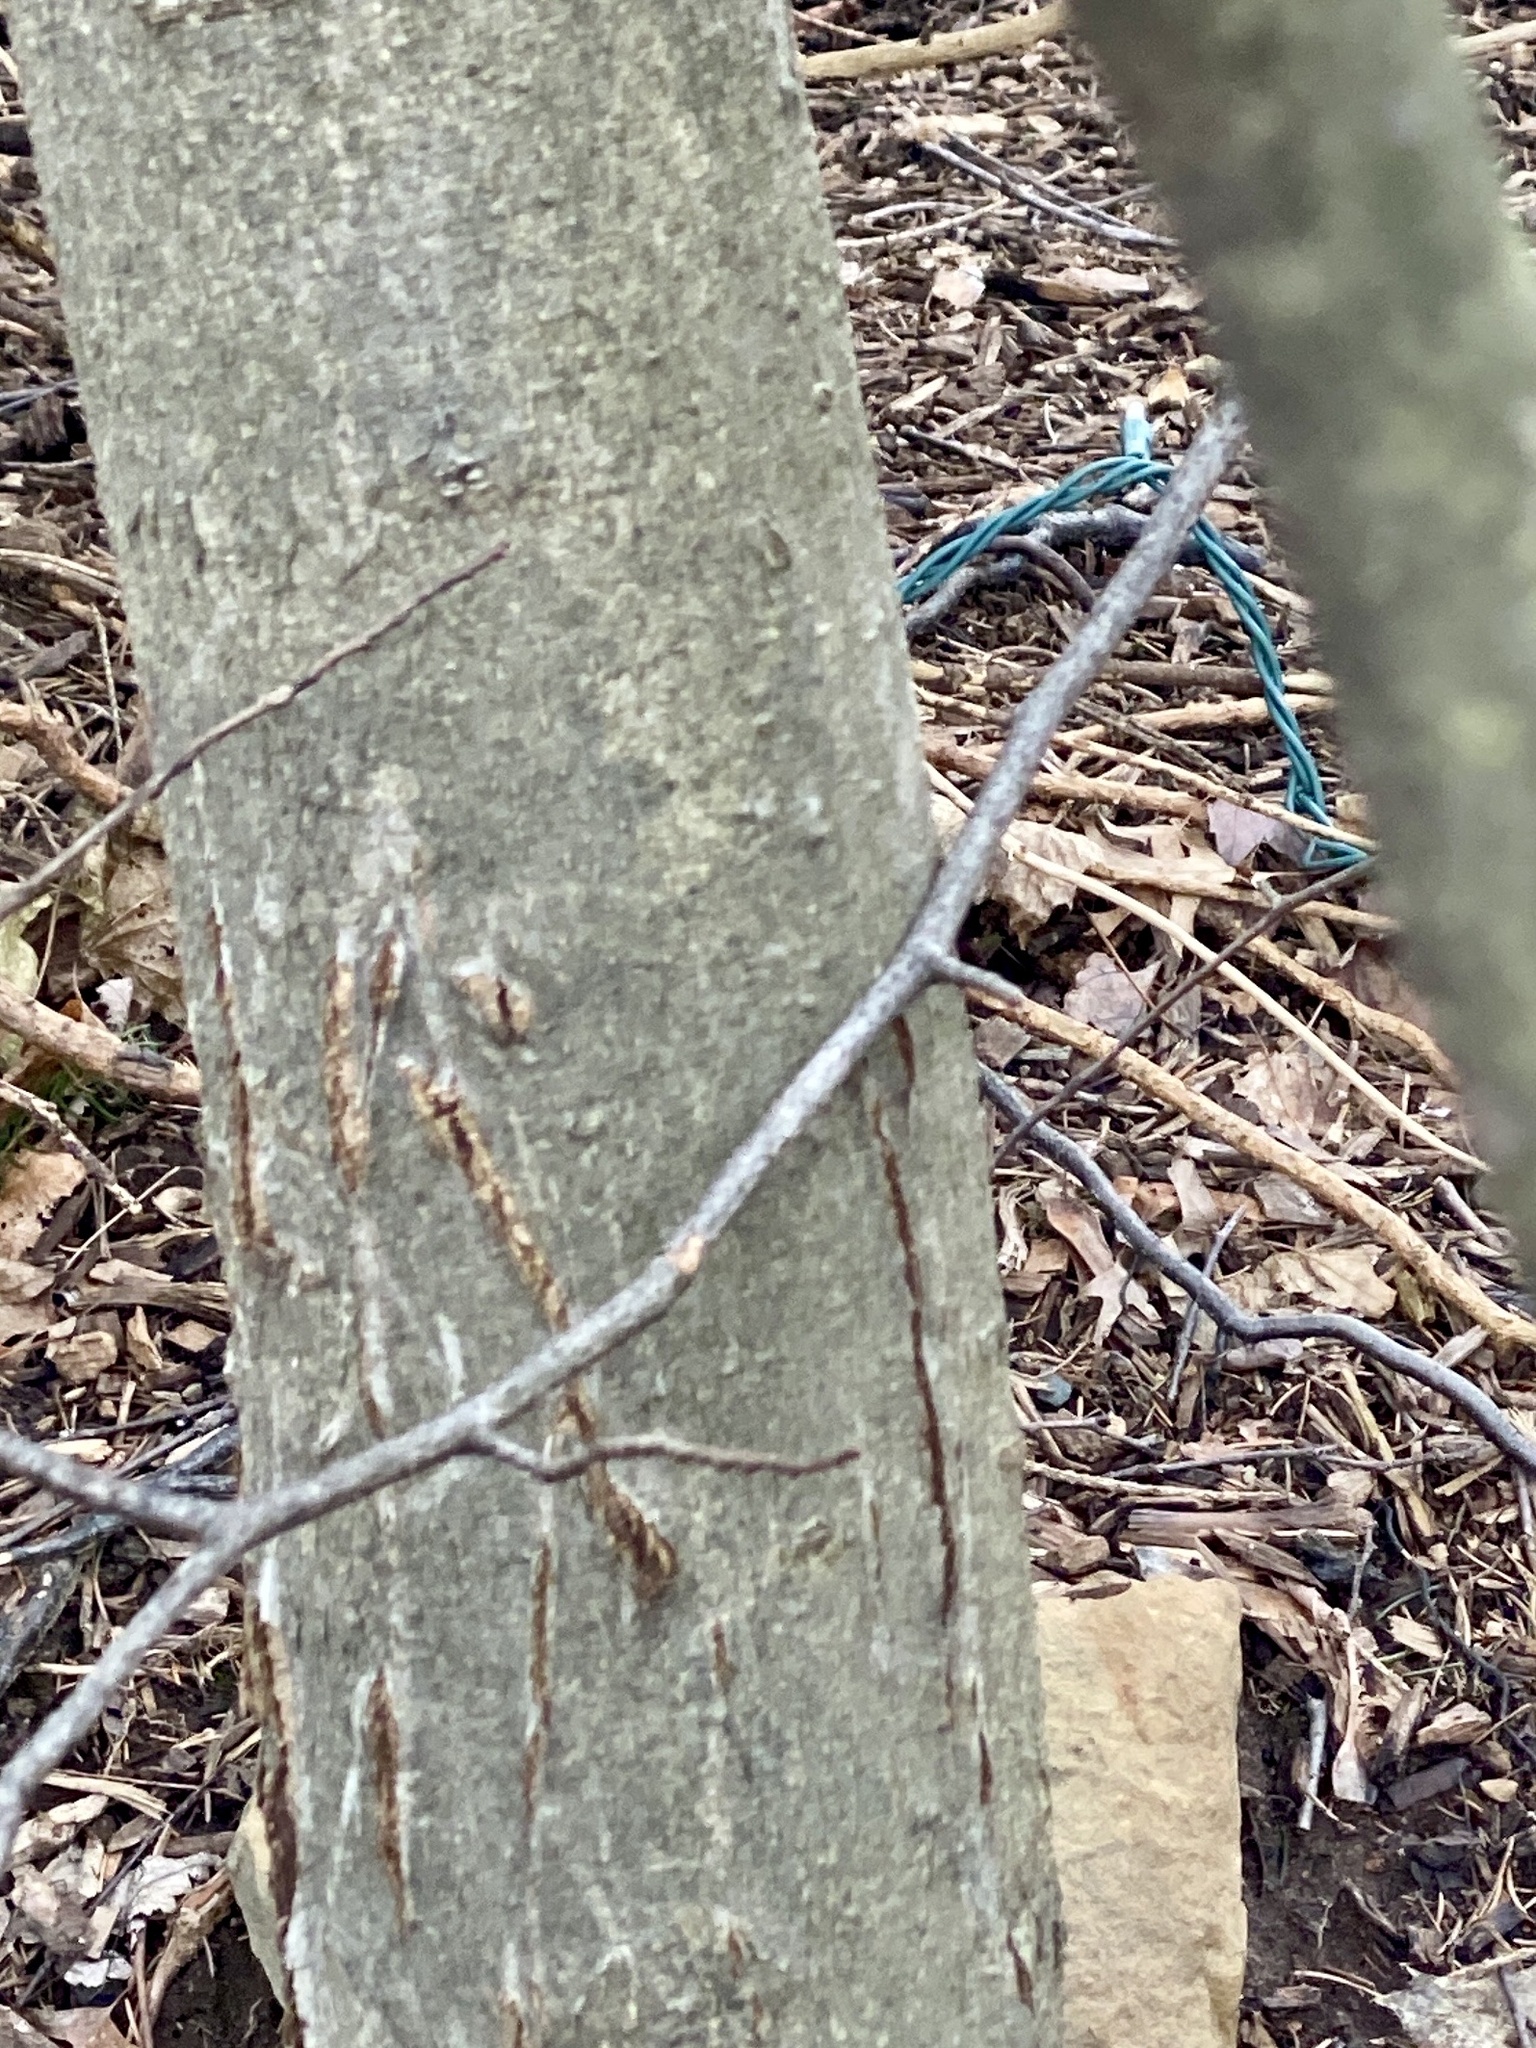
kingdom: Plantae
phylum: Tracheophyta
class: Magnoliopsida
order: Fagales
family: Fagaceae
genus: Fagus
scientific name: Fagus grandifolia
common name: American beech
